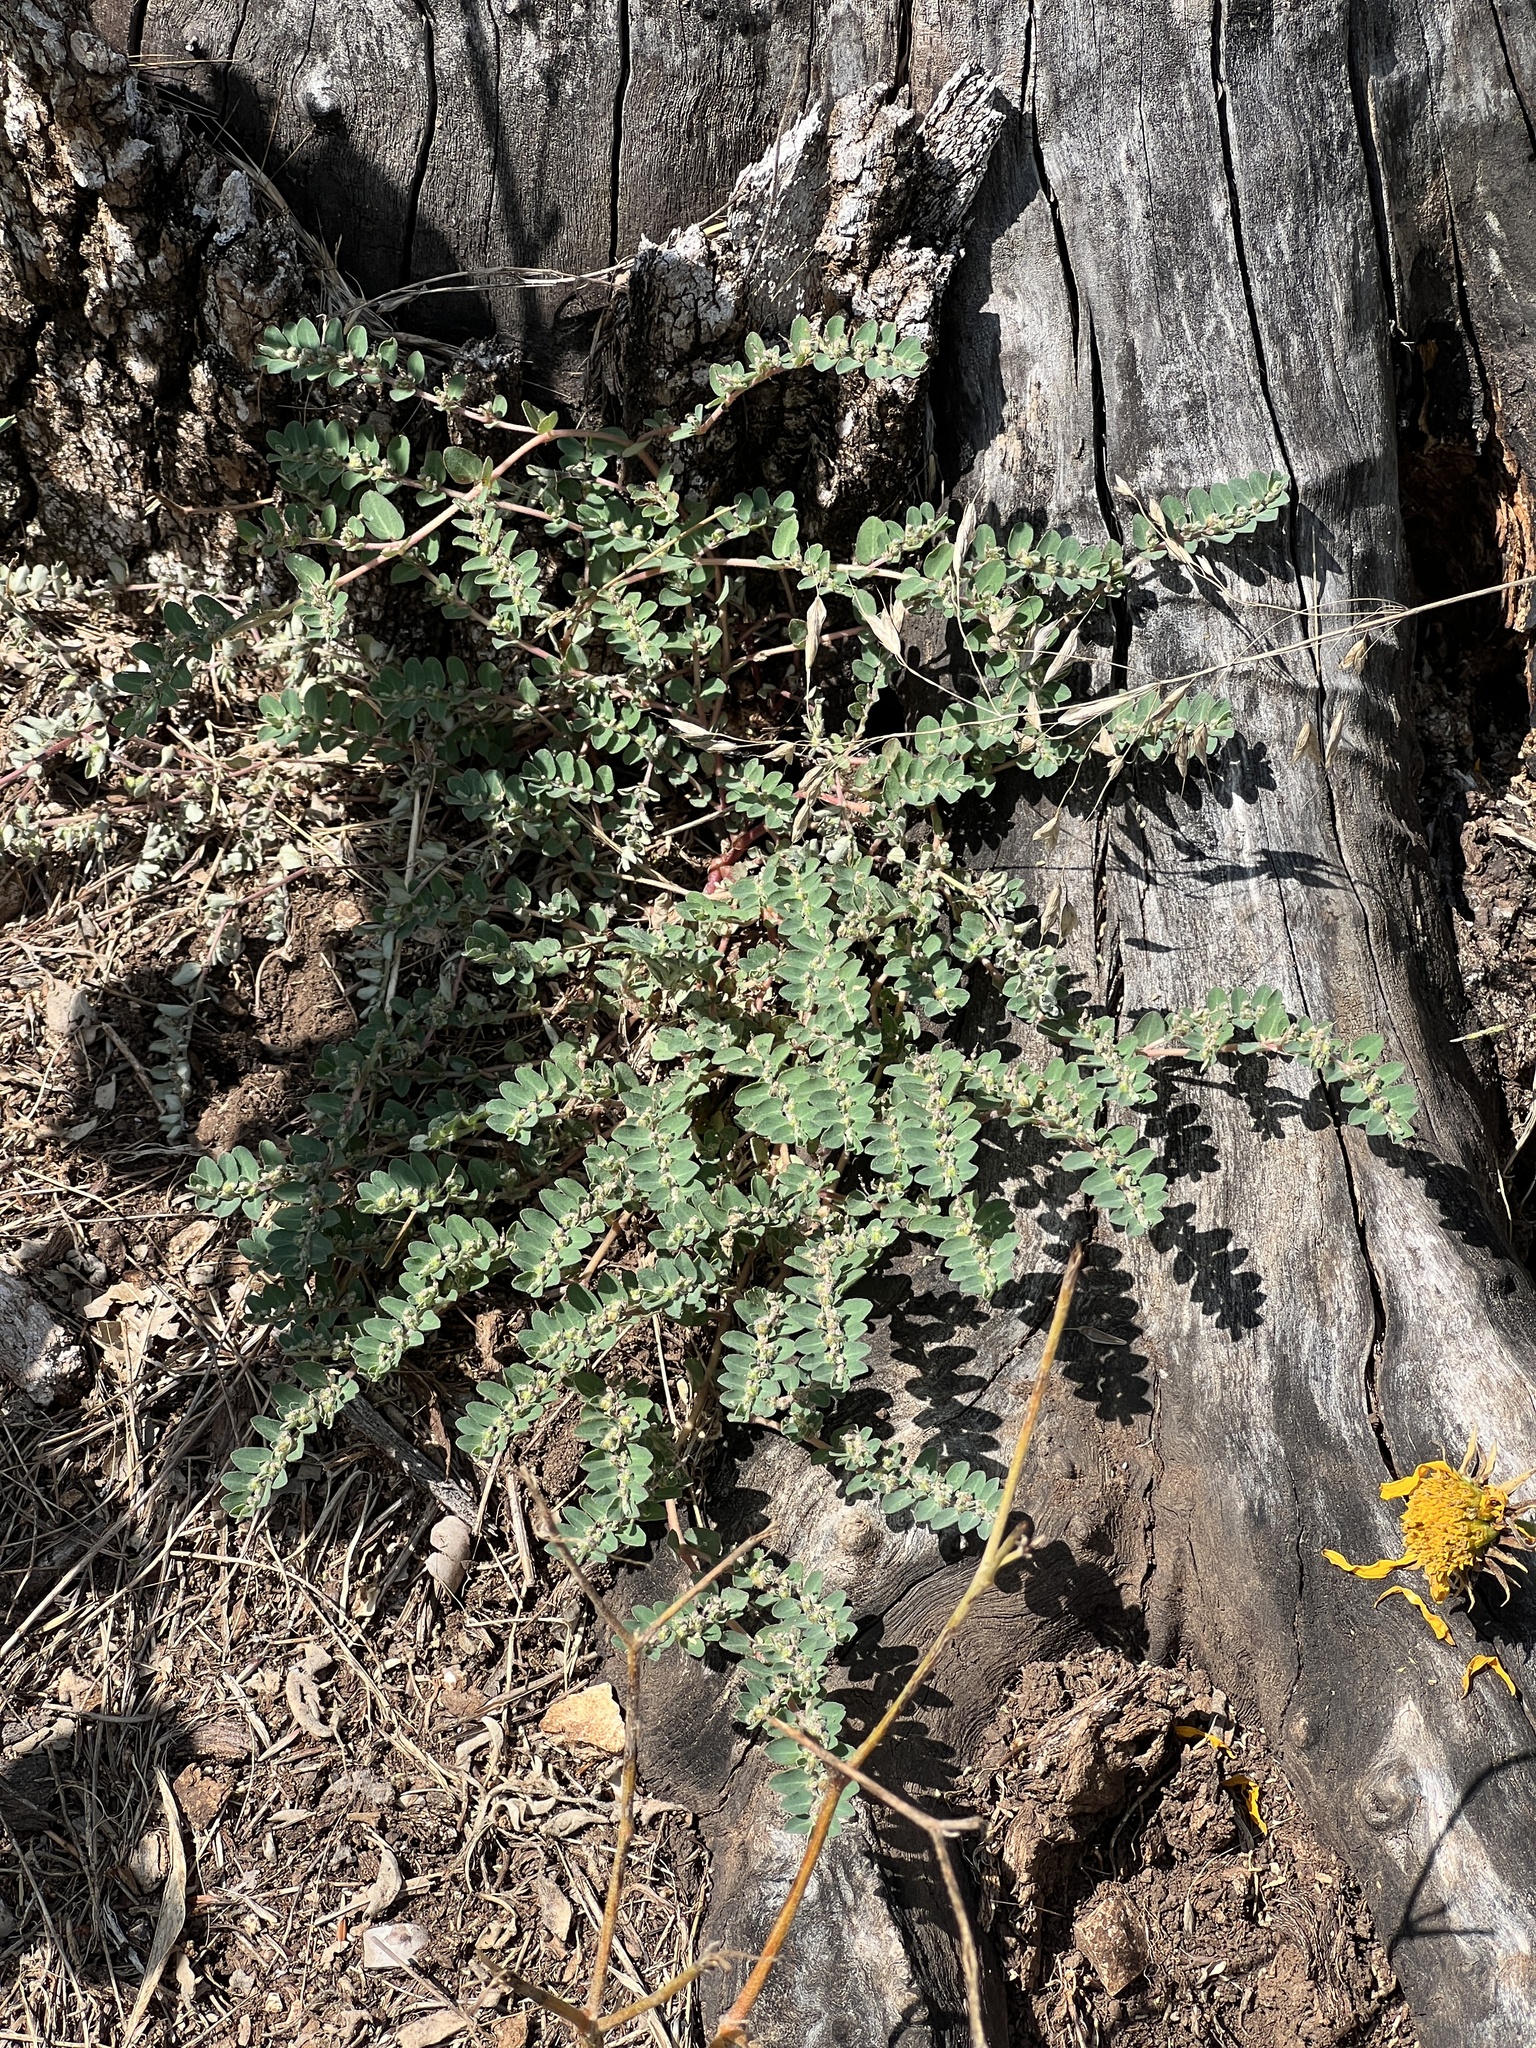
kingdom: Plantae
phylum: Tracheophyta
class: Magnoliopsida
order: Malpighiales
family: Euphorbiaceae
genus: Euphorbia
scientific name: Euphorbia prostrata
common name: Prostrate sandmat
